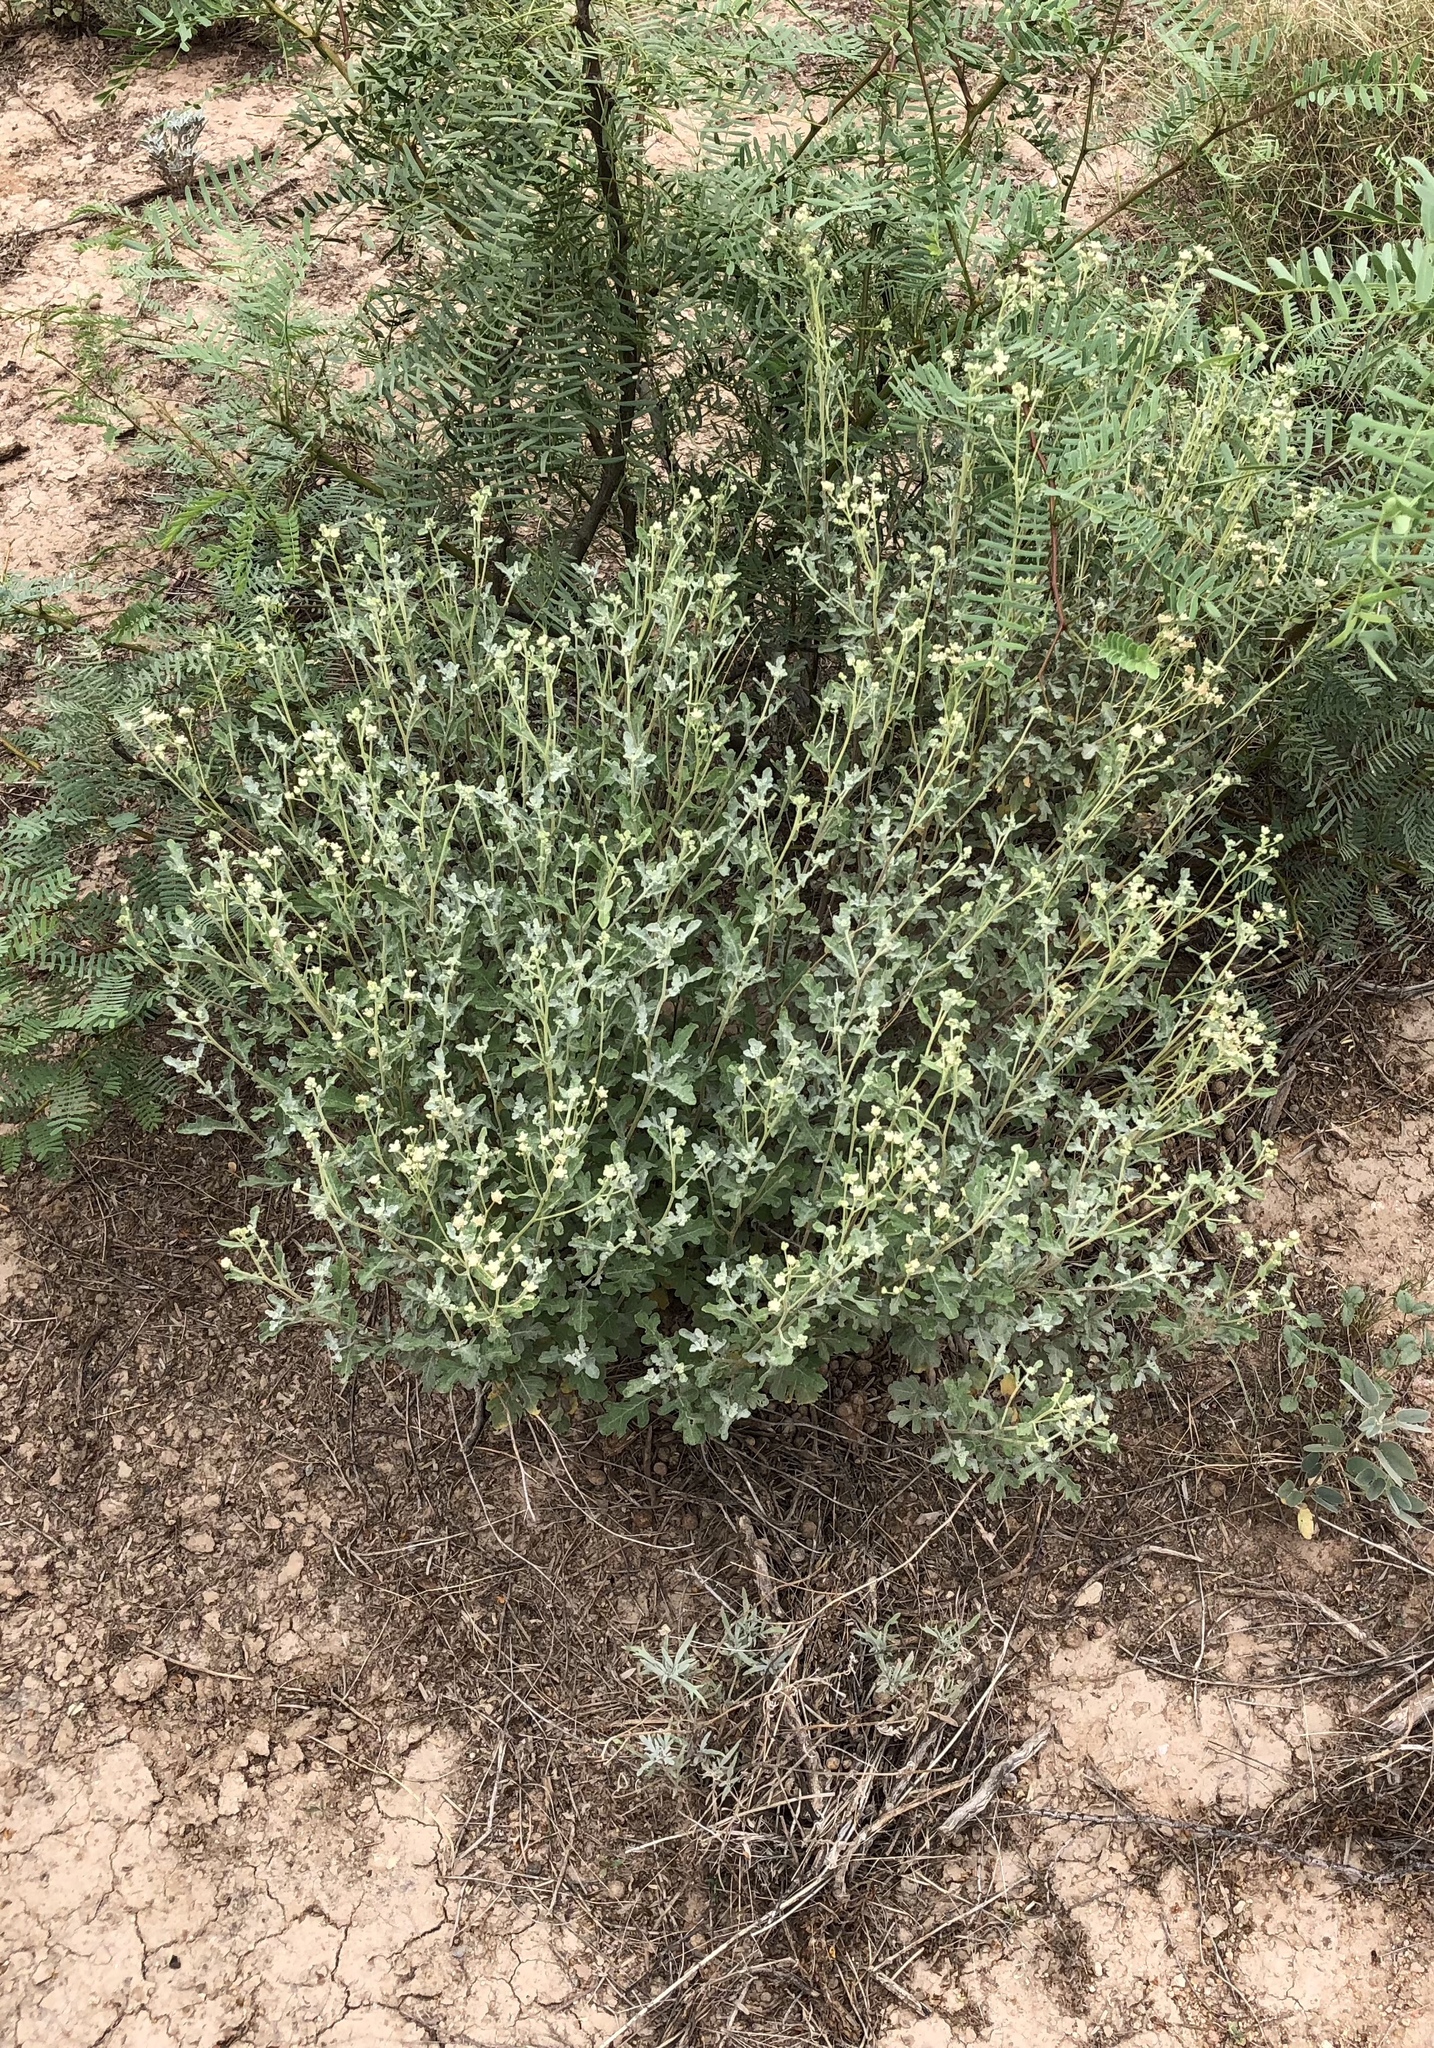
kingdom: Plantae
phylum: Tracheophyta
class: Magnoliopsida
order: Asterales
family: Asteraceae
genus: Parthenium
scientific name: Parthenium incanum
